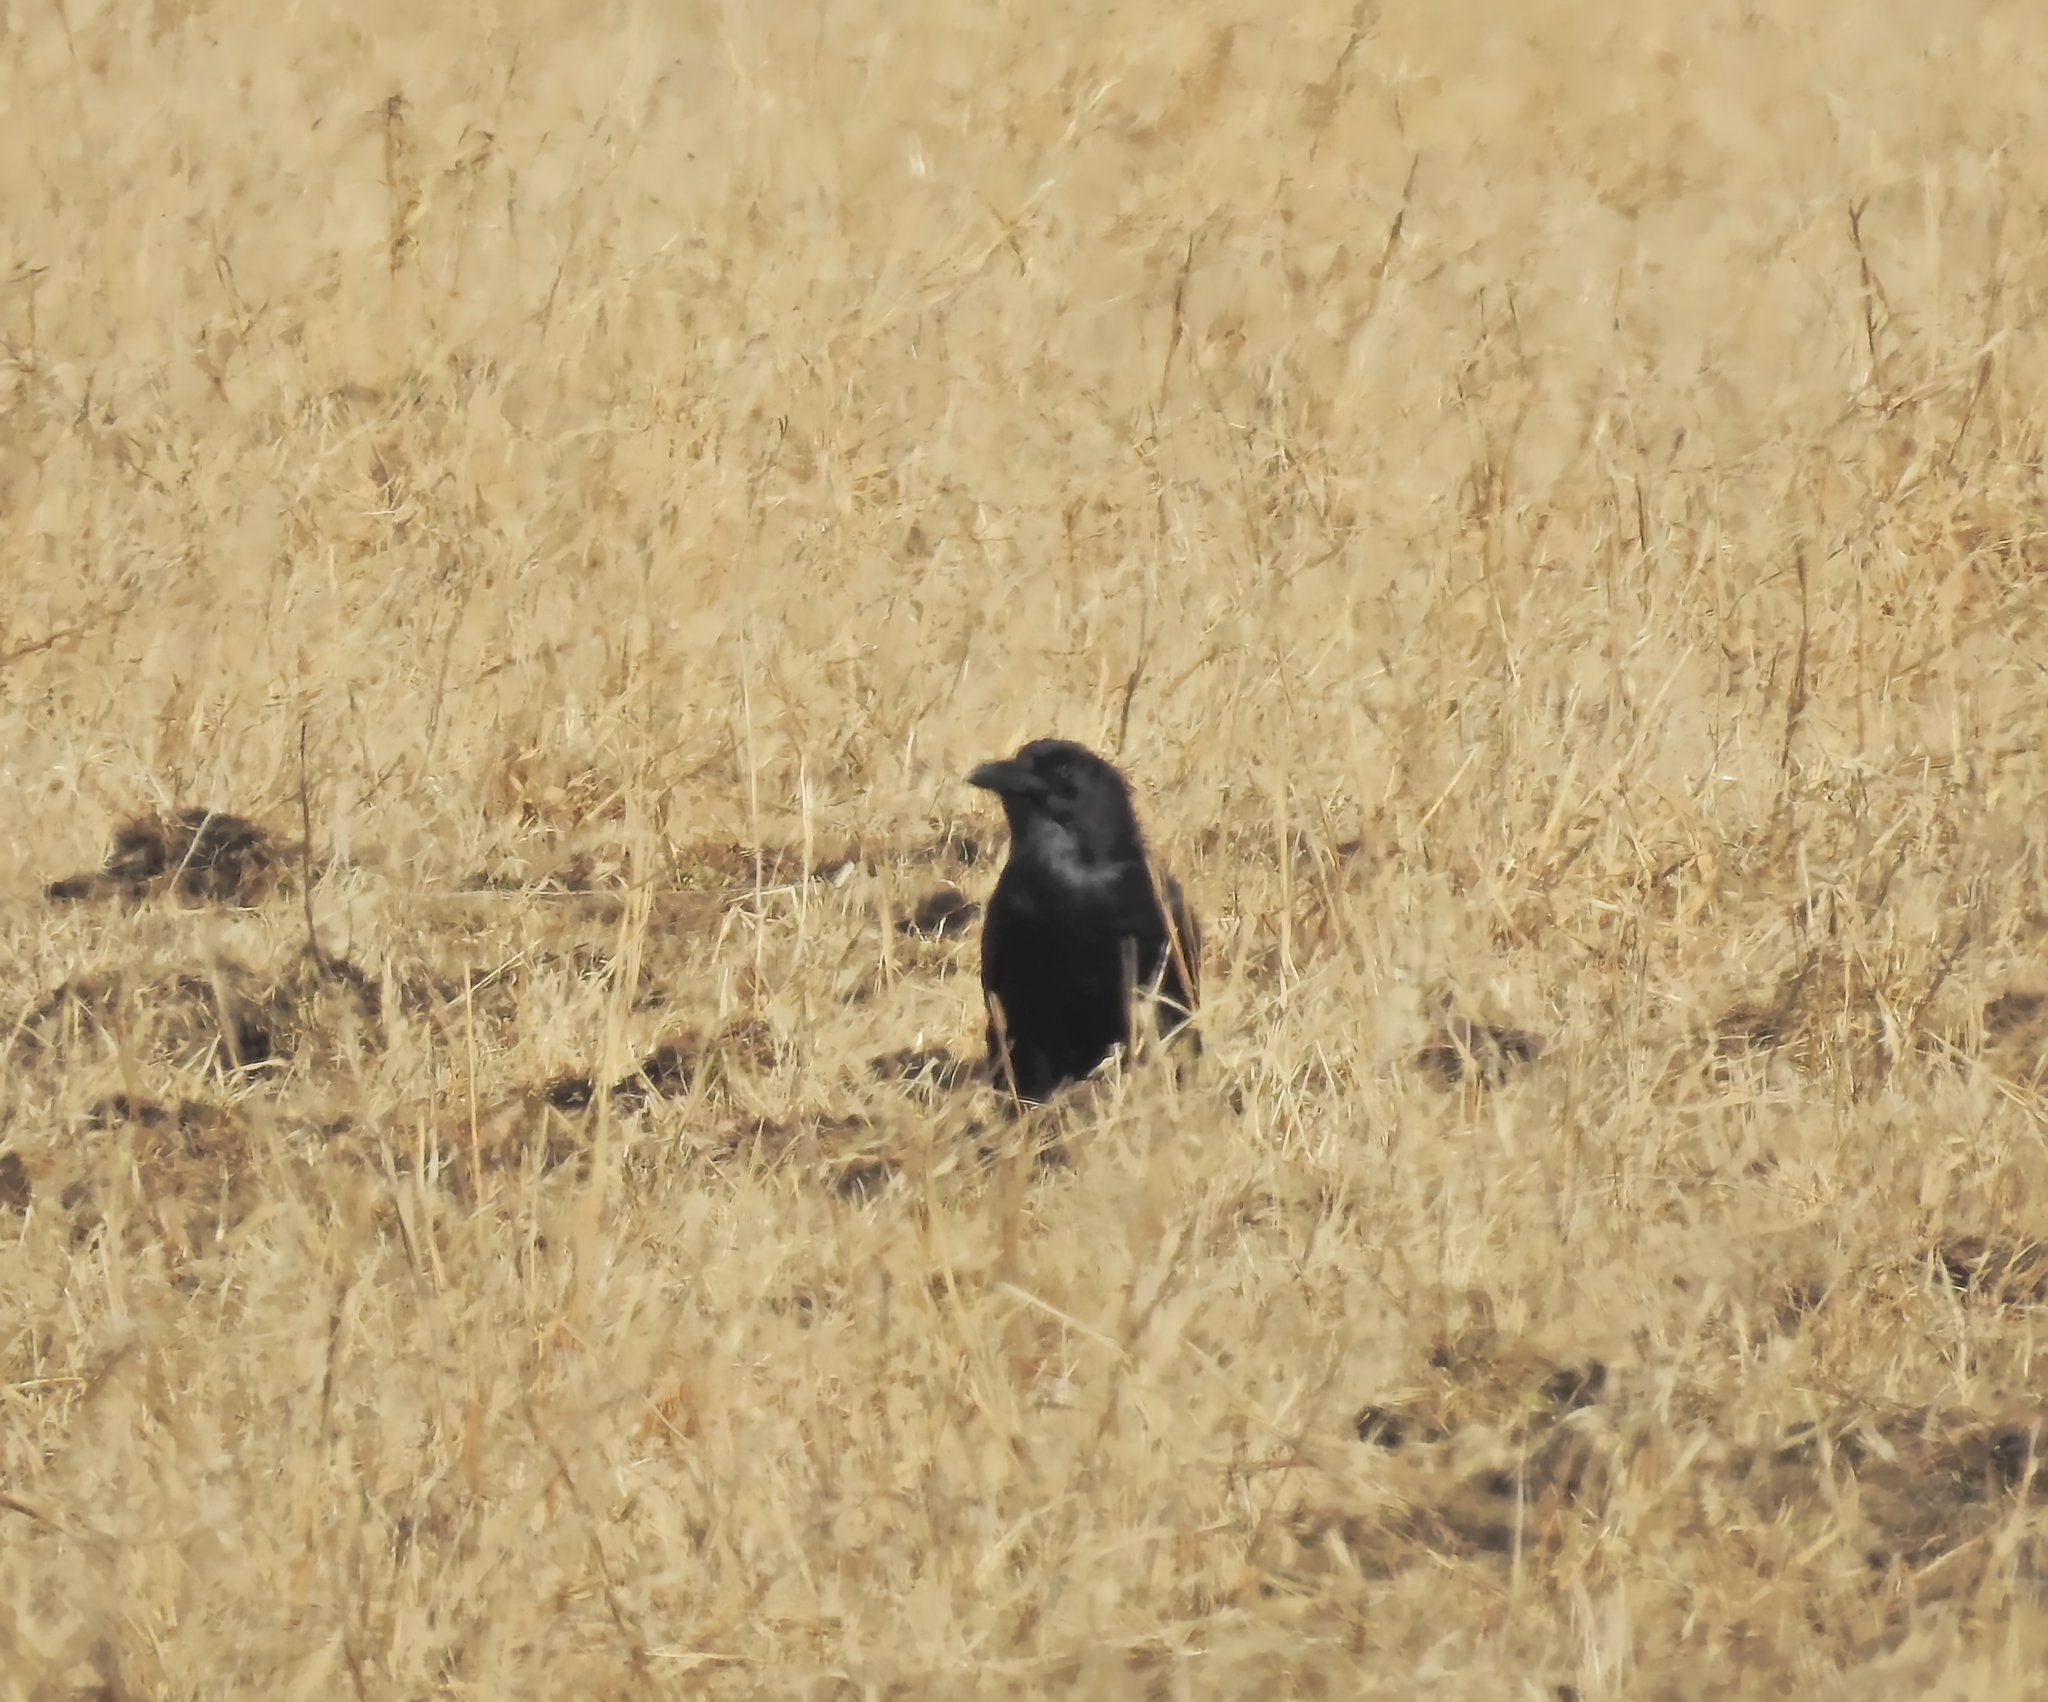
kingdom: Animalia
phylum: Chordata
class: Aves
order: Passeriformes
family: Corvidae
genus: Corvus
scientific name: Corvus corax
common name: Common raven
